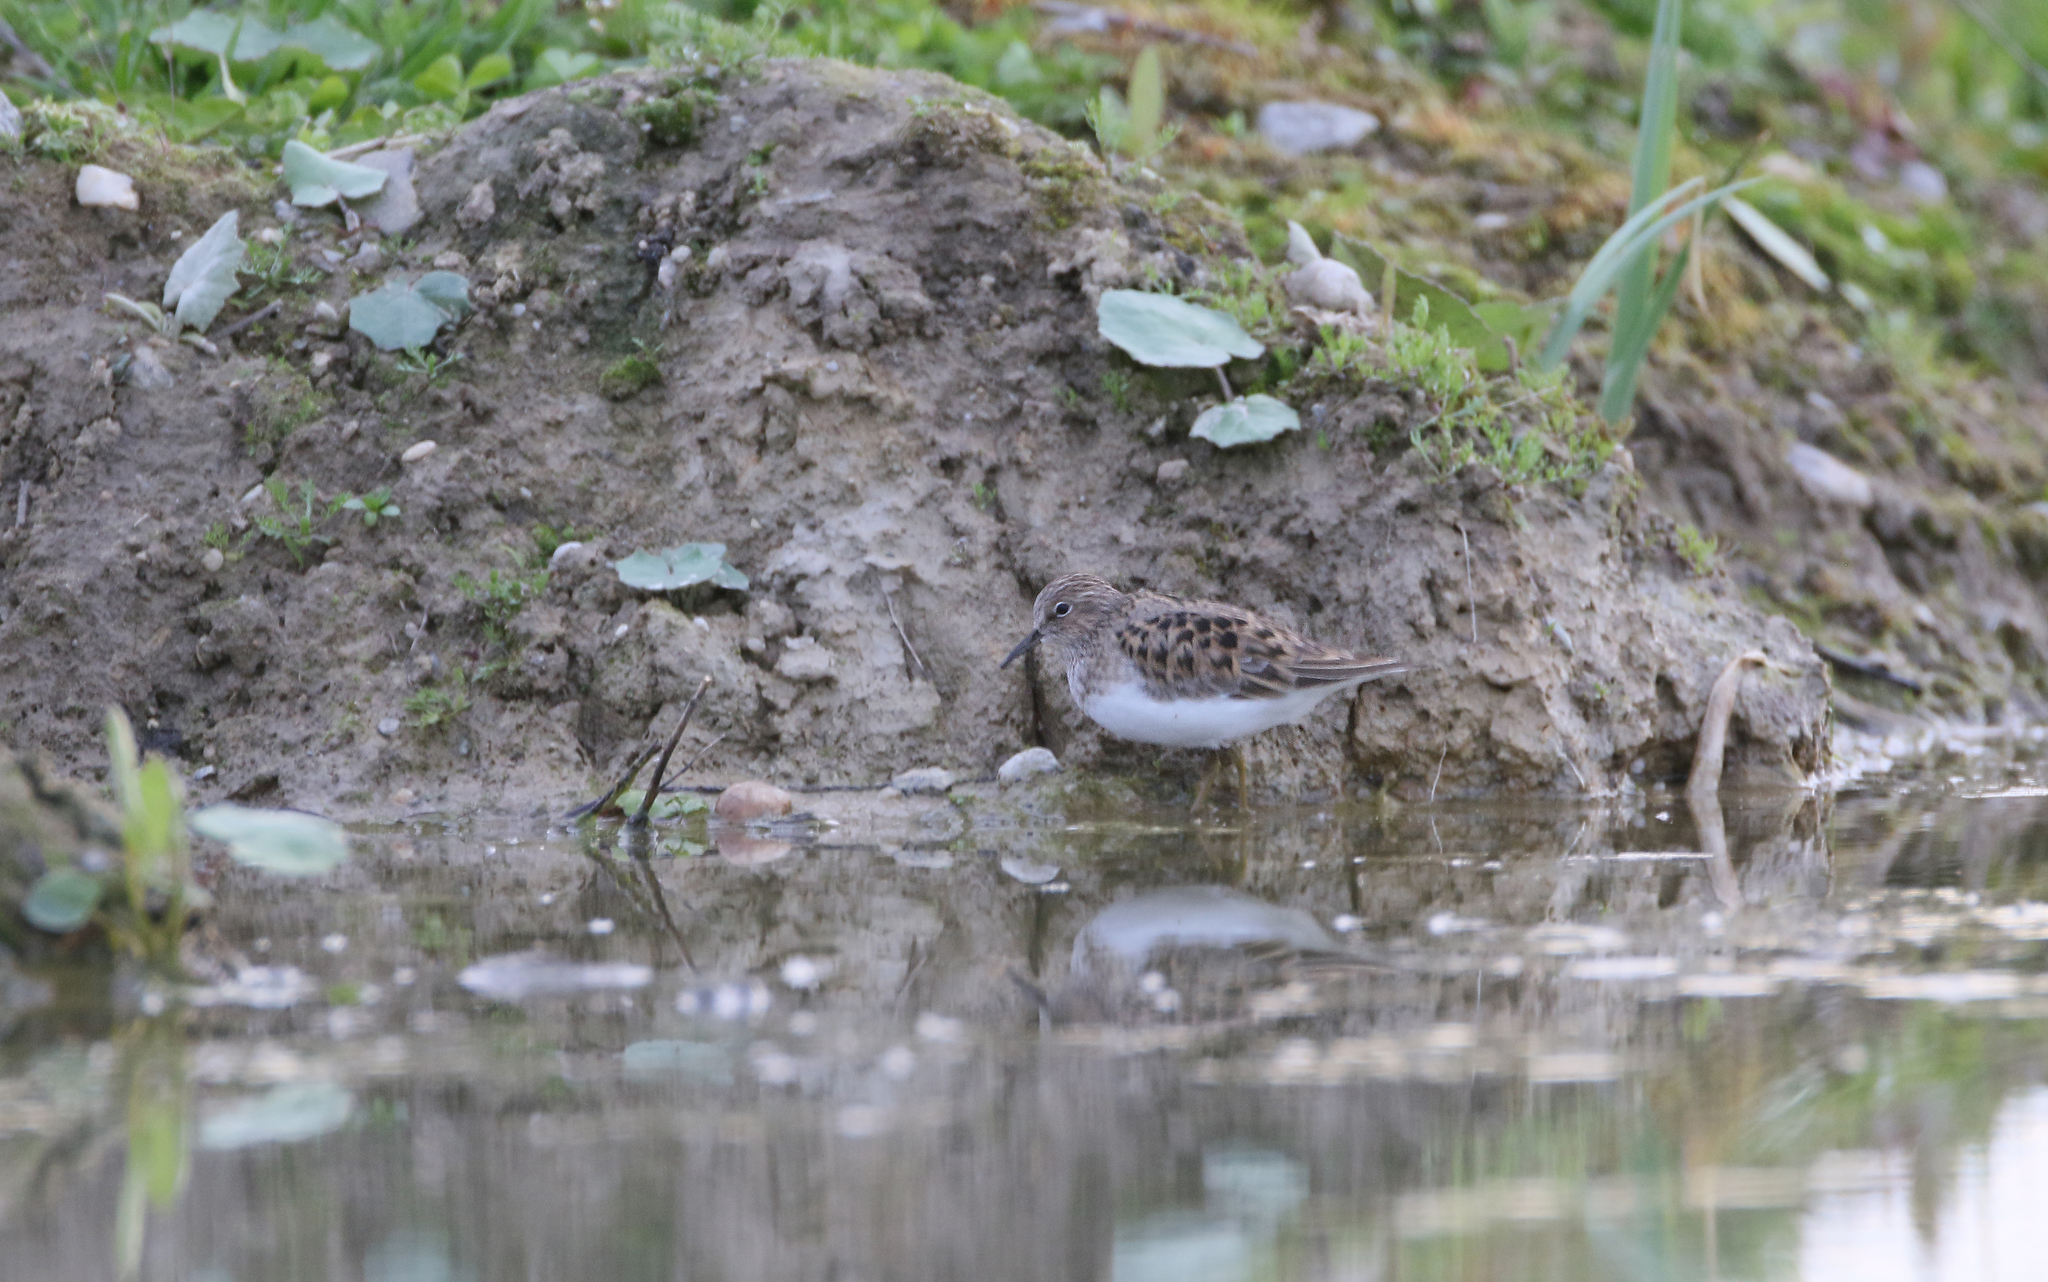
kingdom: Animalia
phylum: Chordata
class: Aves
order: Charadriiformes
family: Scolopacidae
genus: Calidris
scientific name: Calidris temminckii
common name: Temminck's stint
